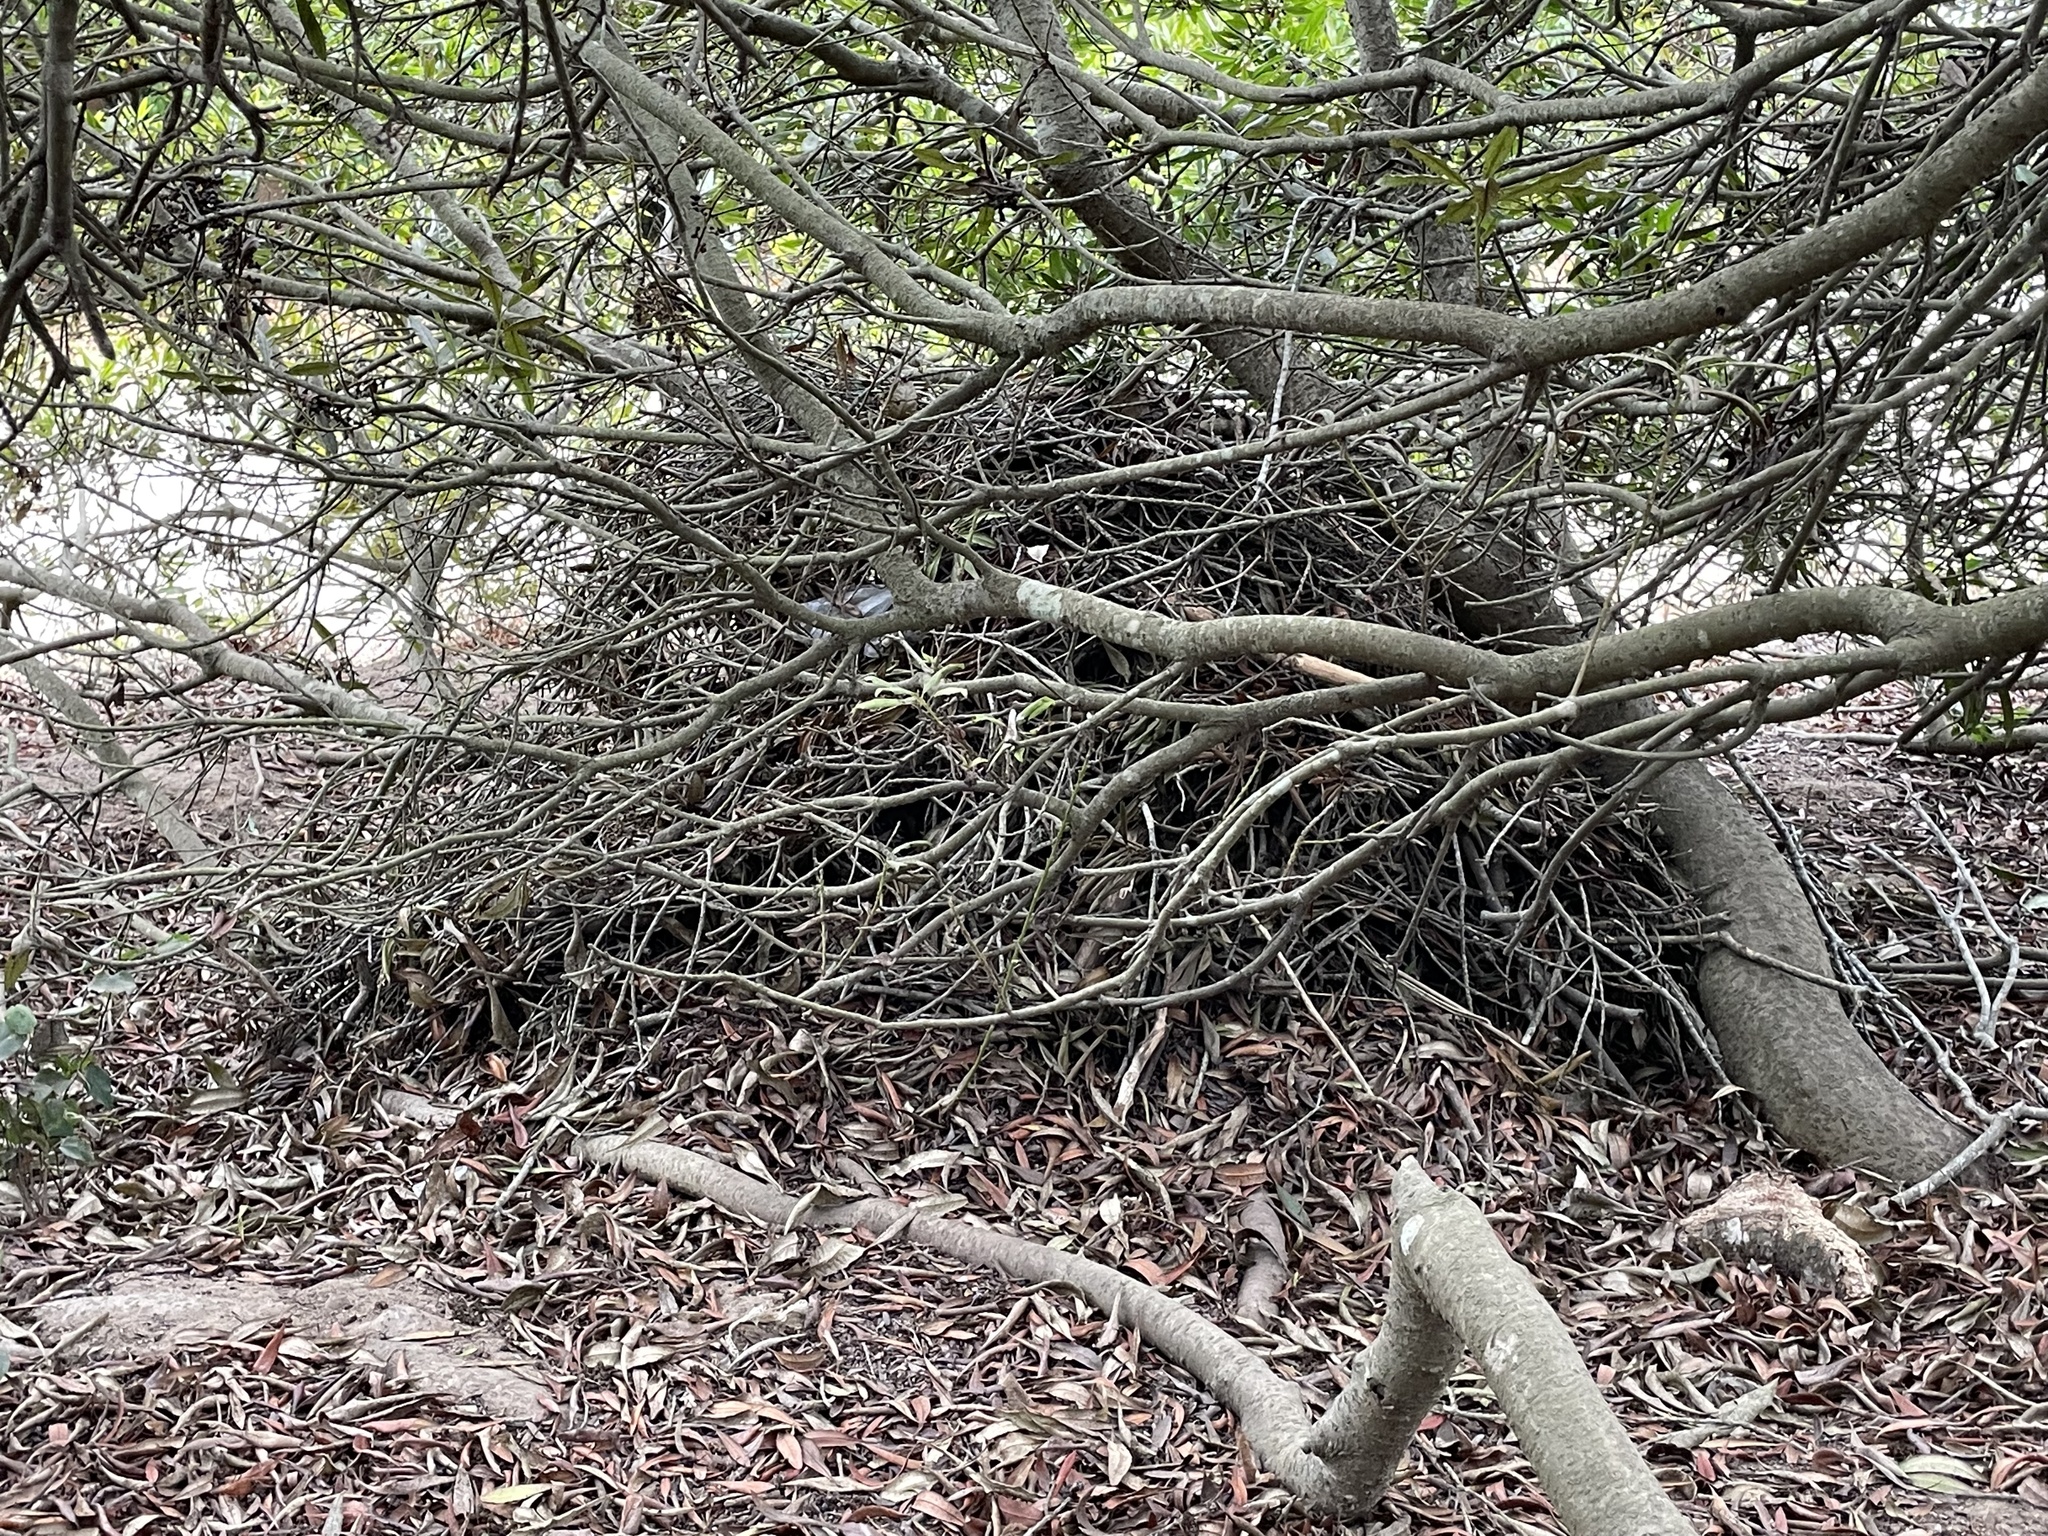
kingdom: Animalia
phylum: Chordata
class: Mammalia
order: Rodentia
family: Cricetidae
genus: Neotoma
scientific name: Neotoma fuscipes
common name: Dusky-footed woodrat
